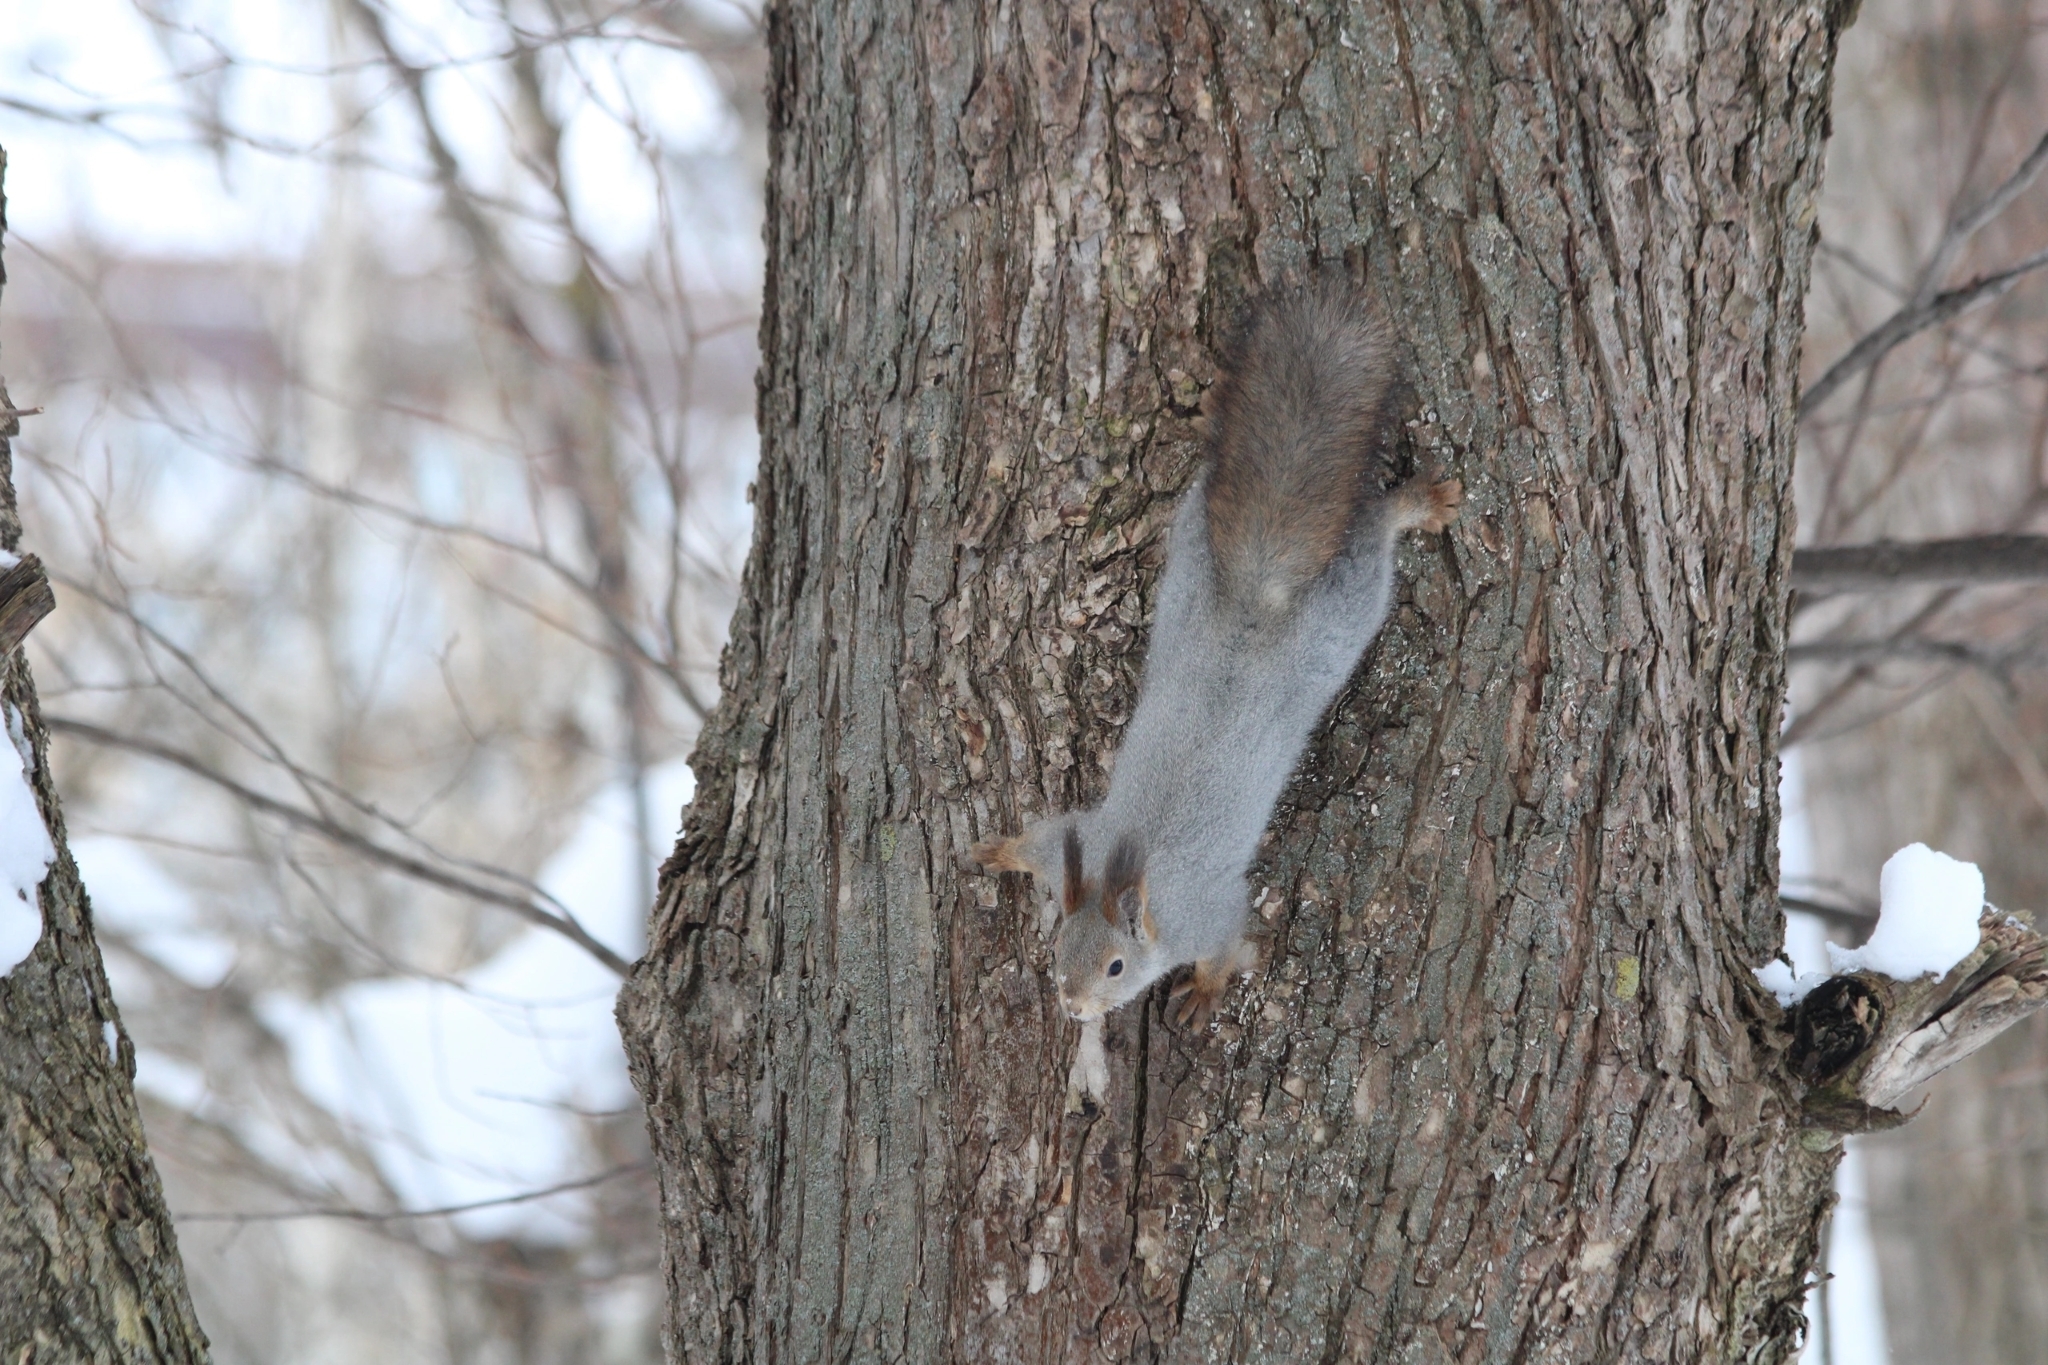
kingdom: Animalia
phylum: Chordata
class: Mammalia
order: Rodentia
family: Sciuridae
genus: Sciurus
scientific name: Sciurus vulgaris
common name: Eurasian red squirrel
